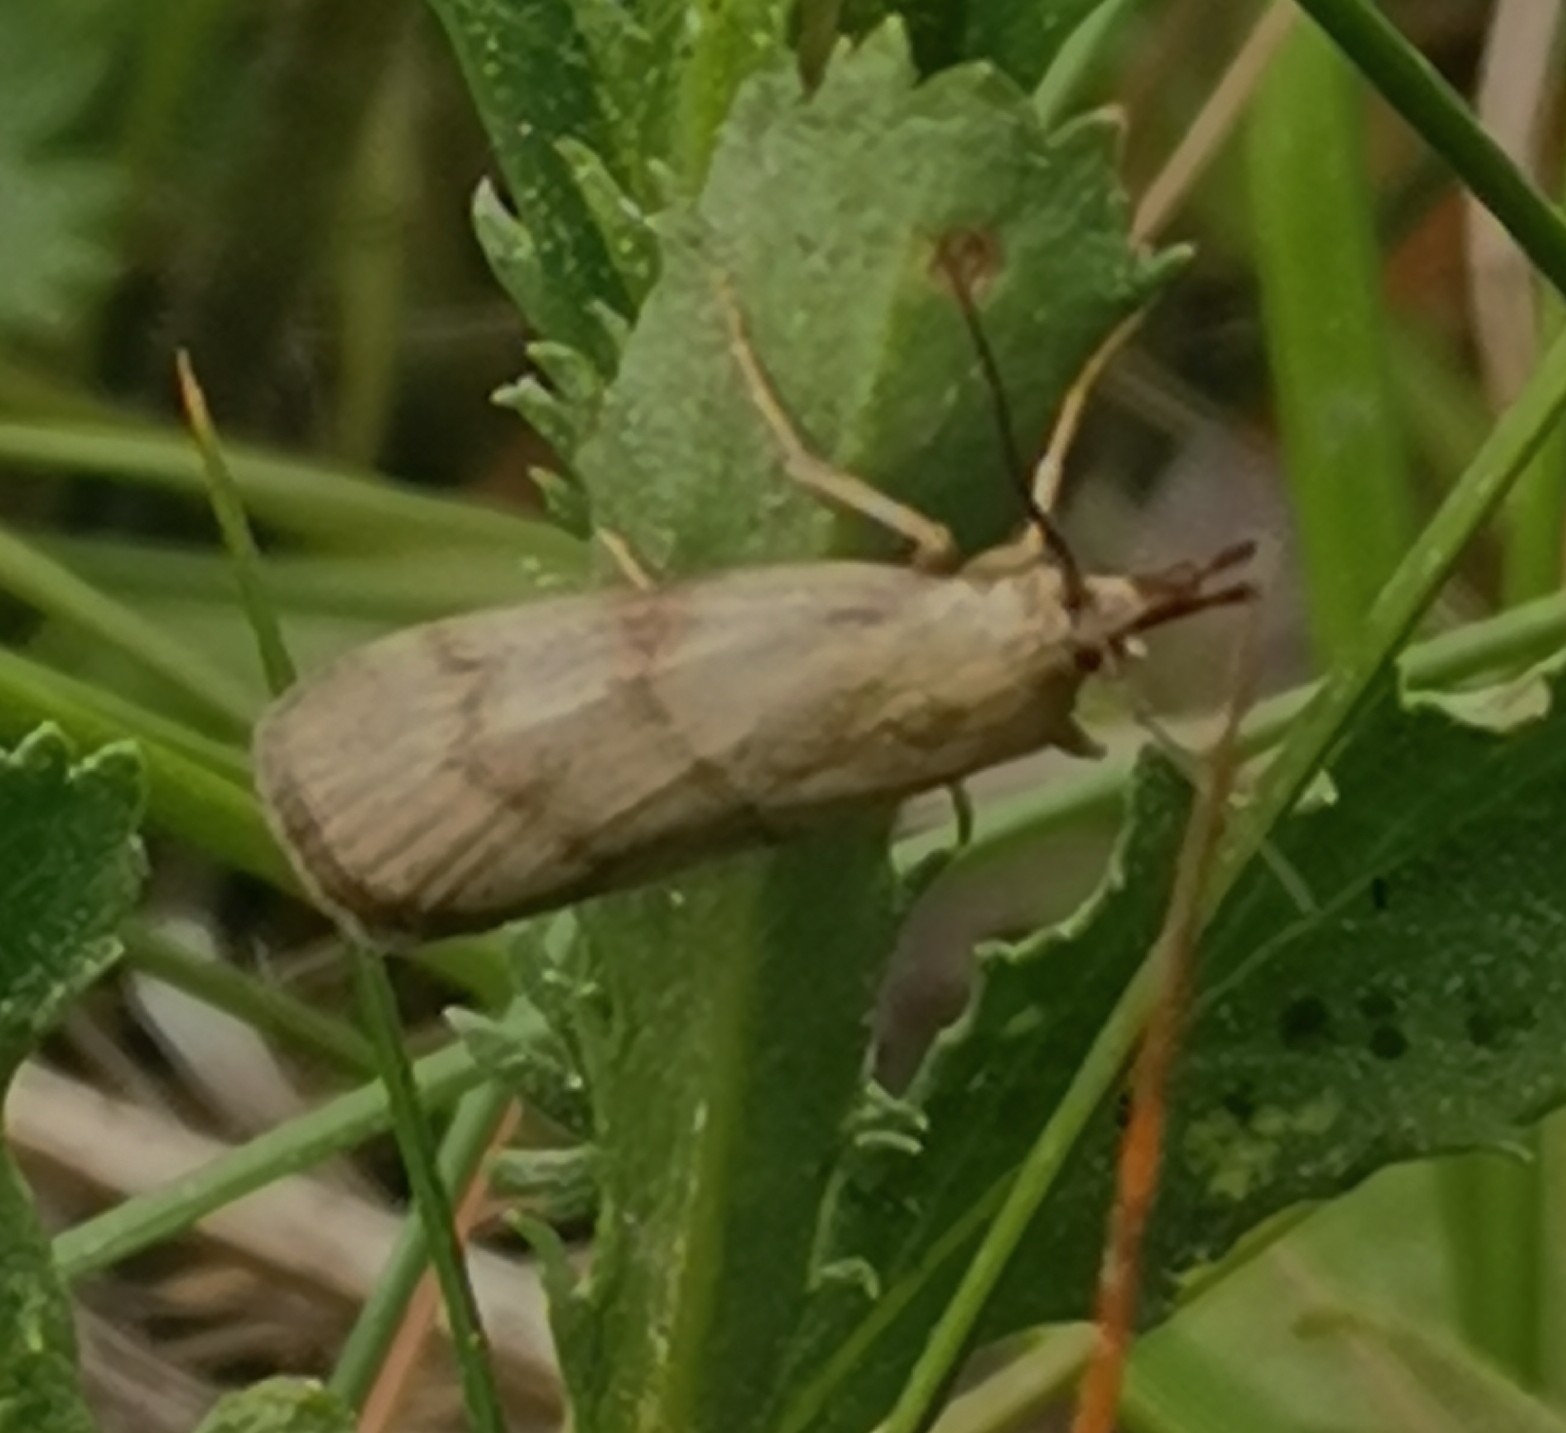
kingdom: Animalia
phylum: Arthropoda
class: Insecta
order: Lepidoptera
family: Pyralidae
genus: Hypochalcia
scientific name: Hypochalcia ahenella
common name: Dingy knot-horn
